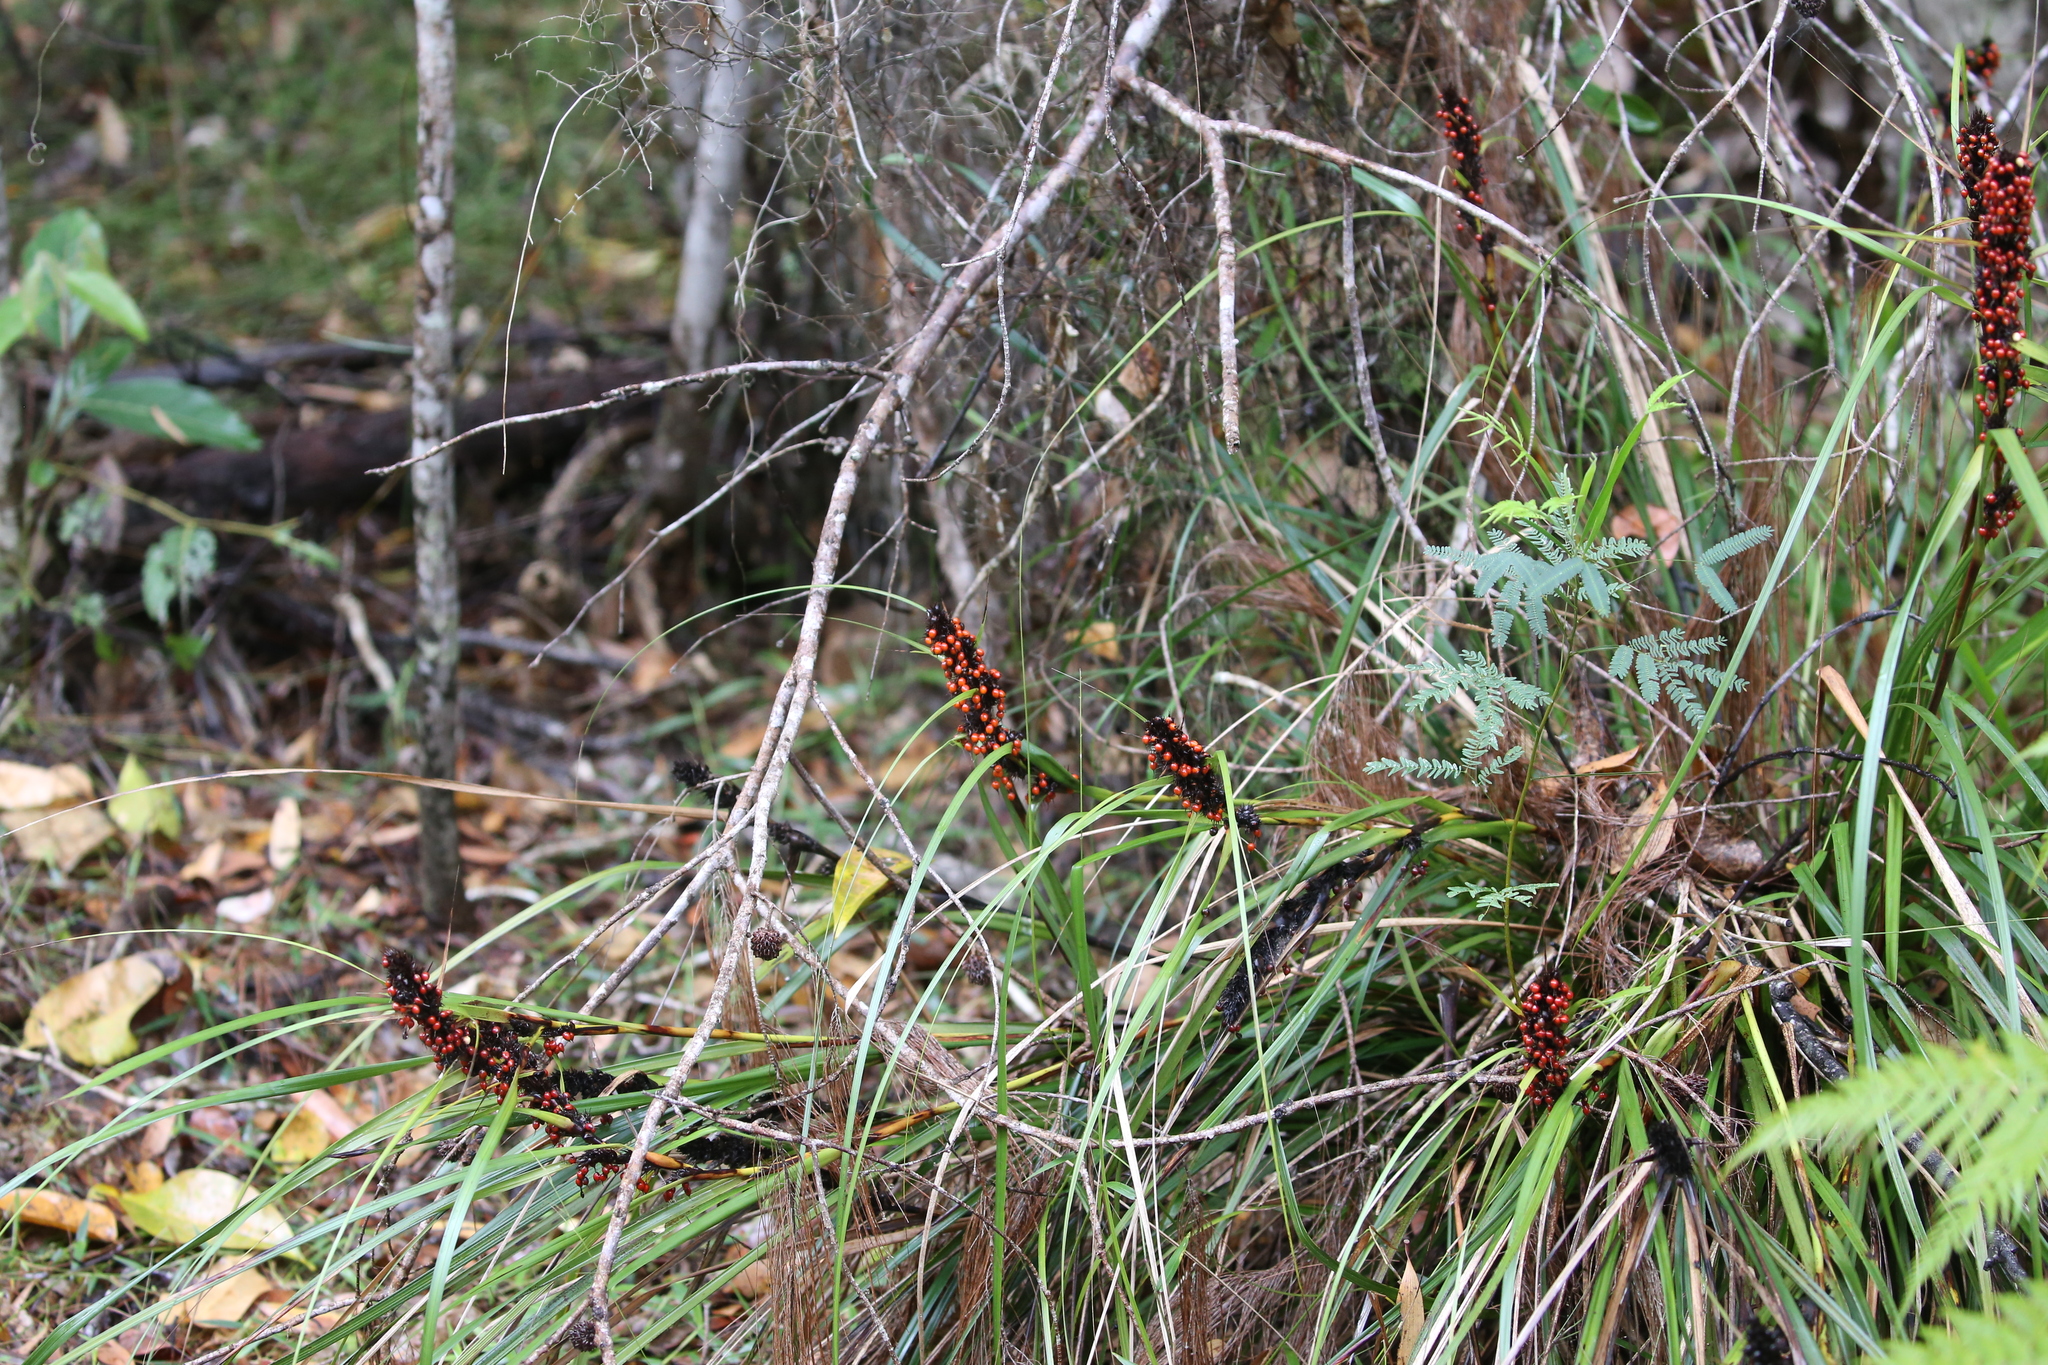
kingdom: Plantae
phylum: Tracheophyta
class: Liliopsida
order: Poales
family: Cyperaceae
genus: Gahnia
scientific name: Gahnia aspera
